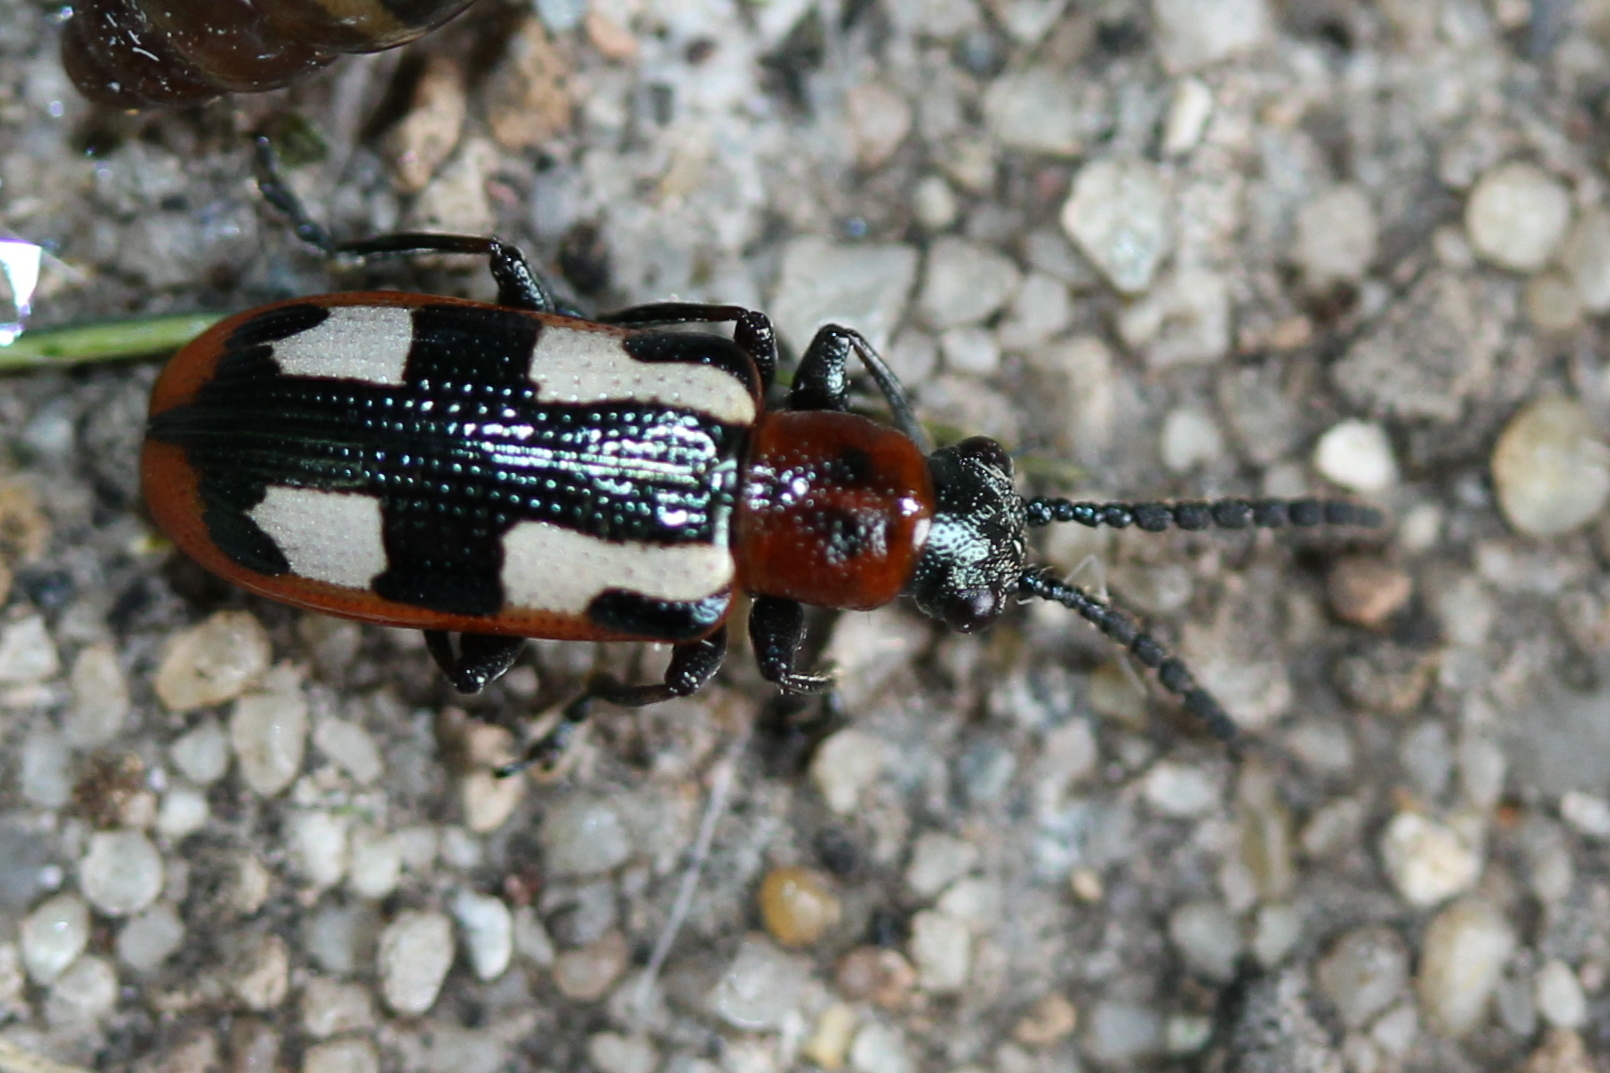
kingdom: Animalia
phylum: Arthropoda
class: Insecta
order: Coleoptera
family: Chrysomelidae
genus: Crioceris
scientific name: Crioceris asparagi
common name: Asparagus beetle
